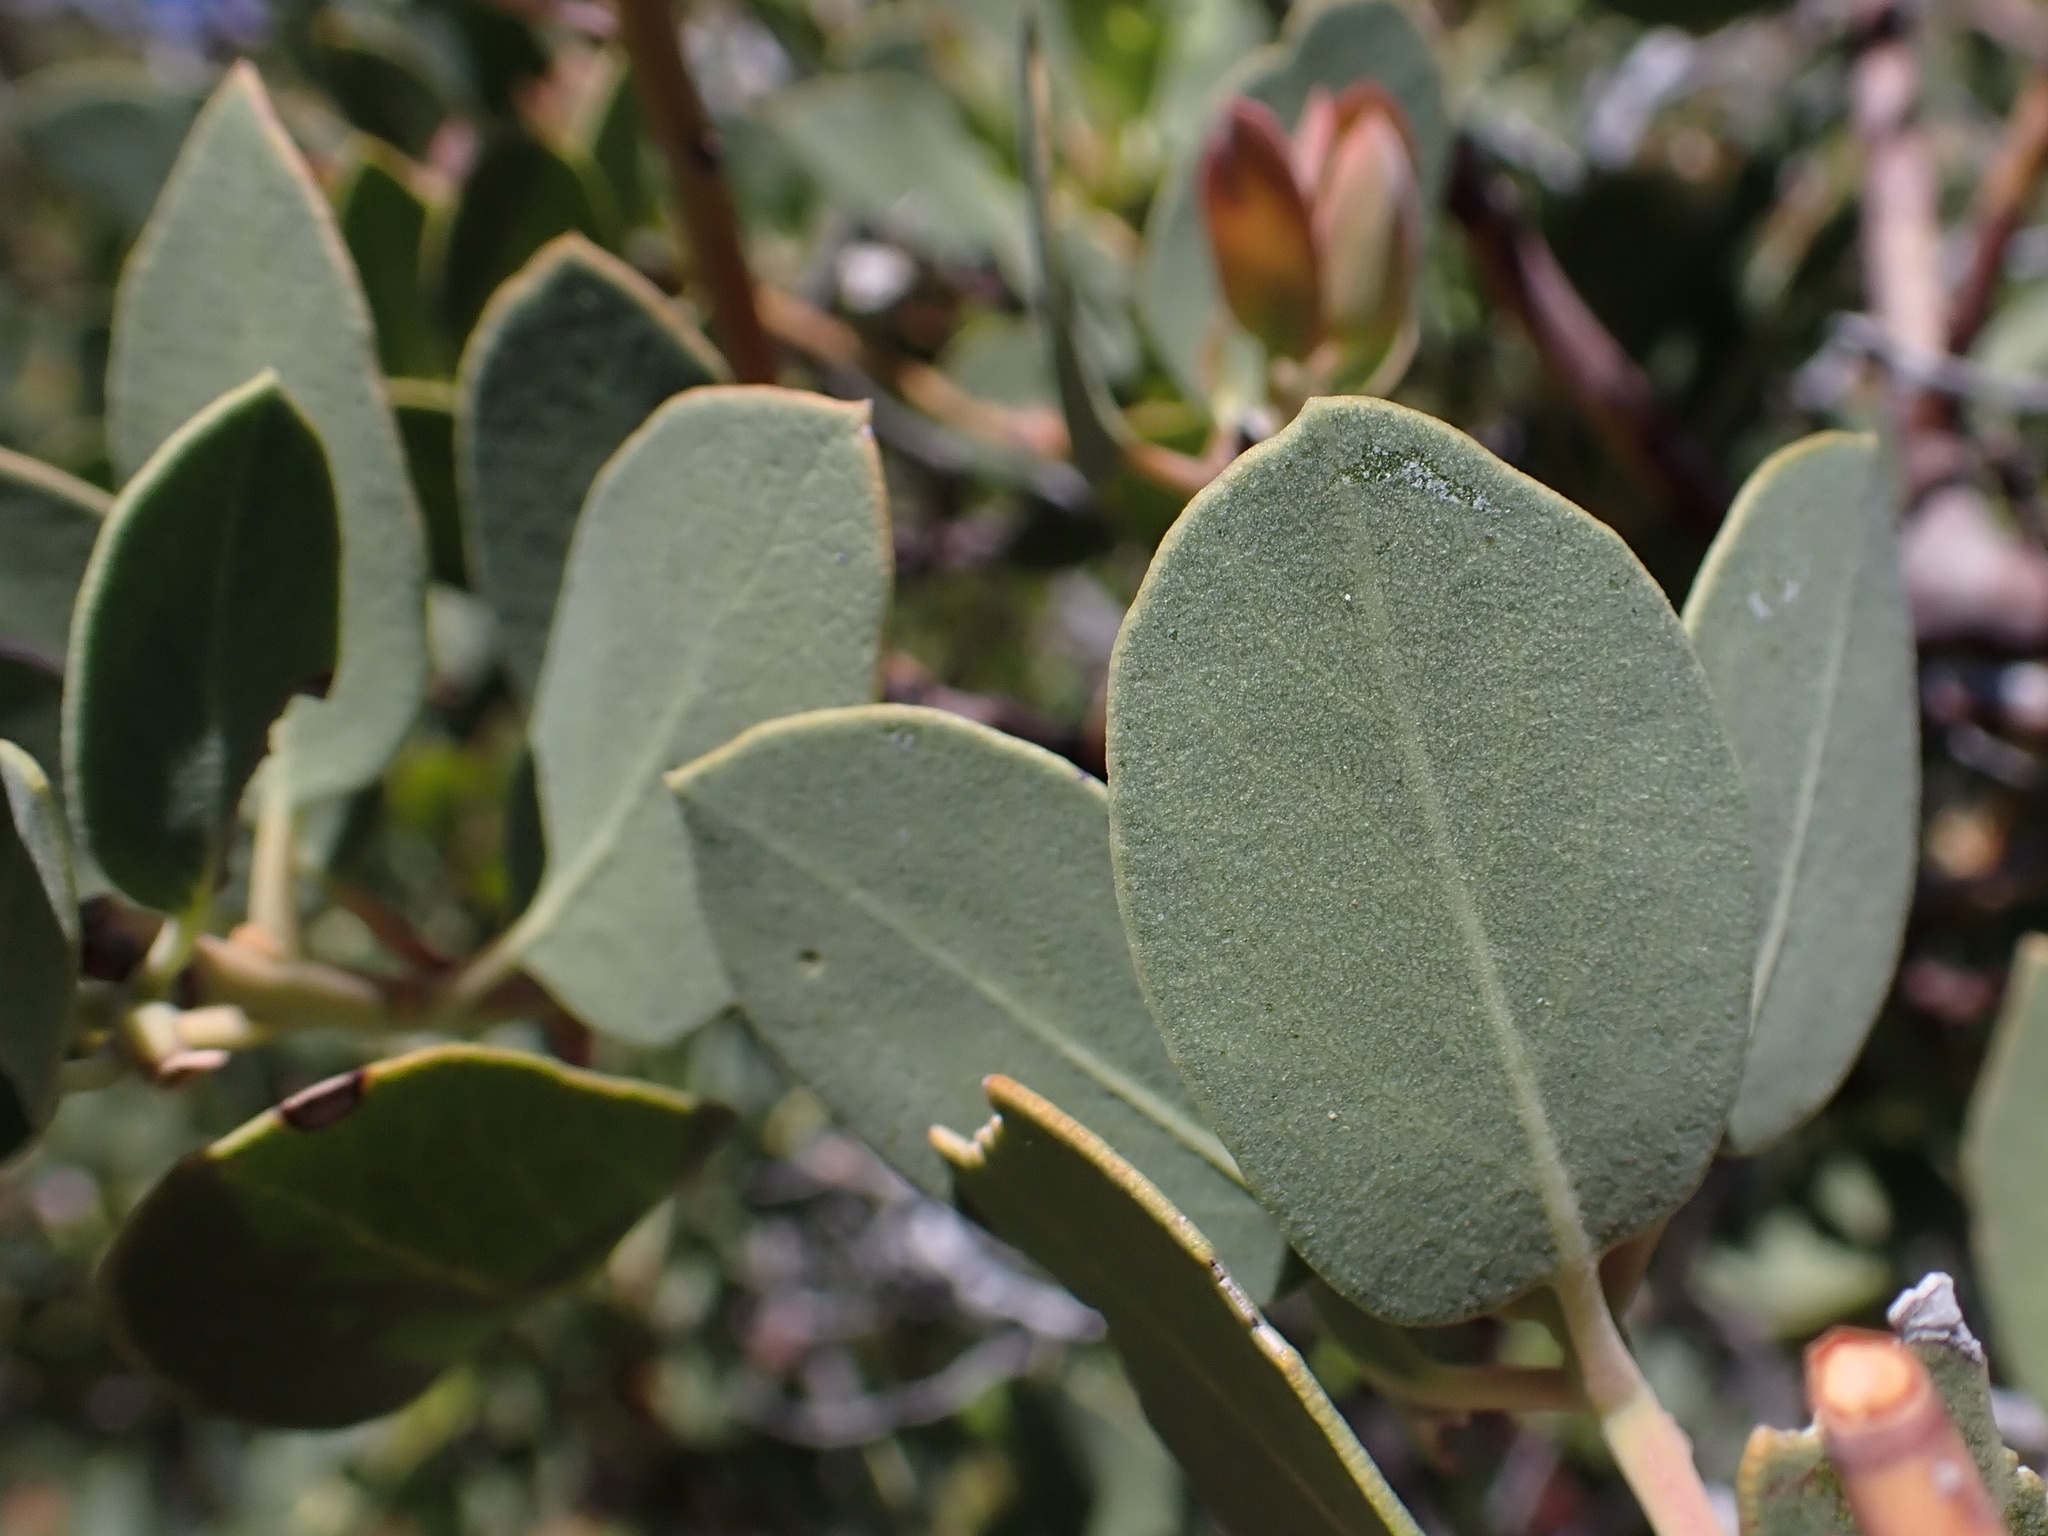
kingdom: Plantae
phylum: Tracheophyta
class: Magnoliopsida
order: Ericales
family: Ericaceae
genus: Arctostaphylos
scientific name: Arctostaphylos parryana
